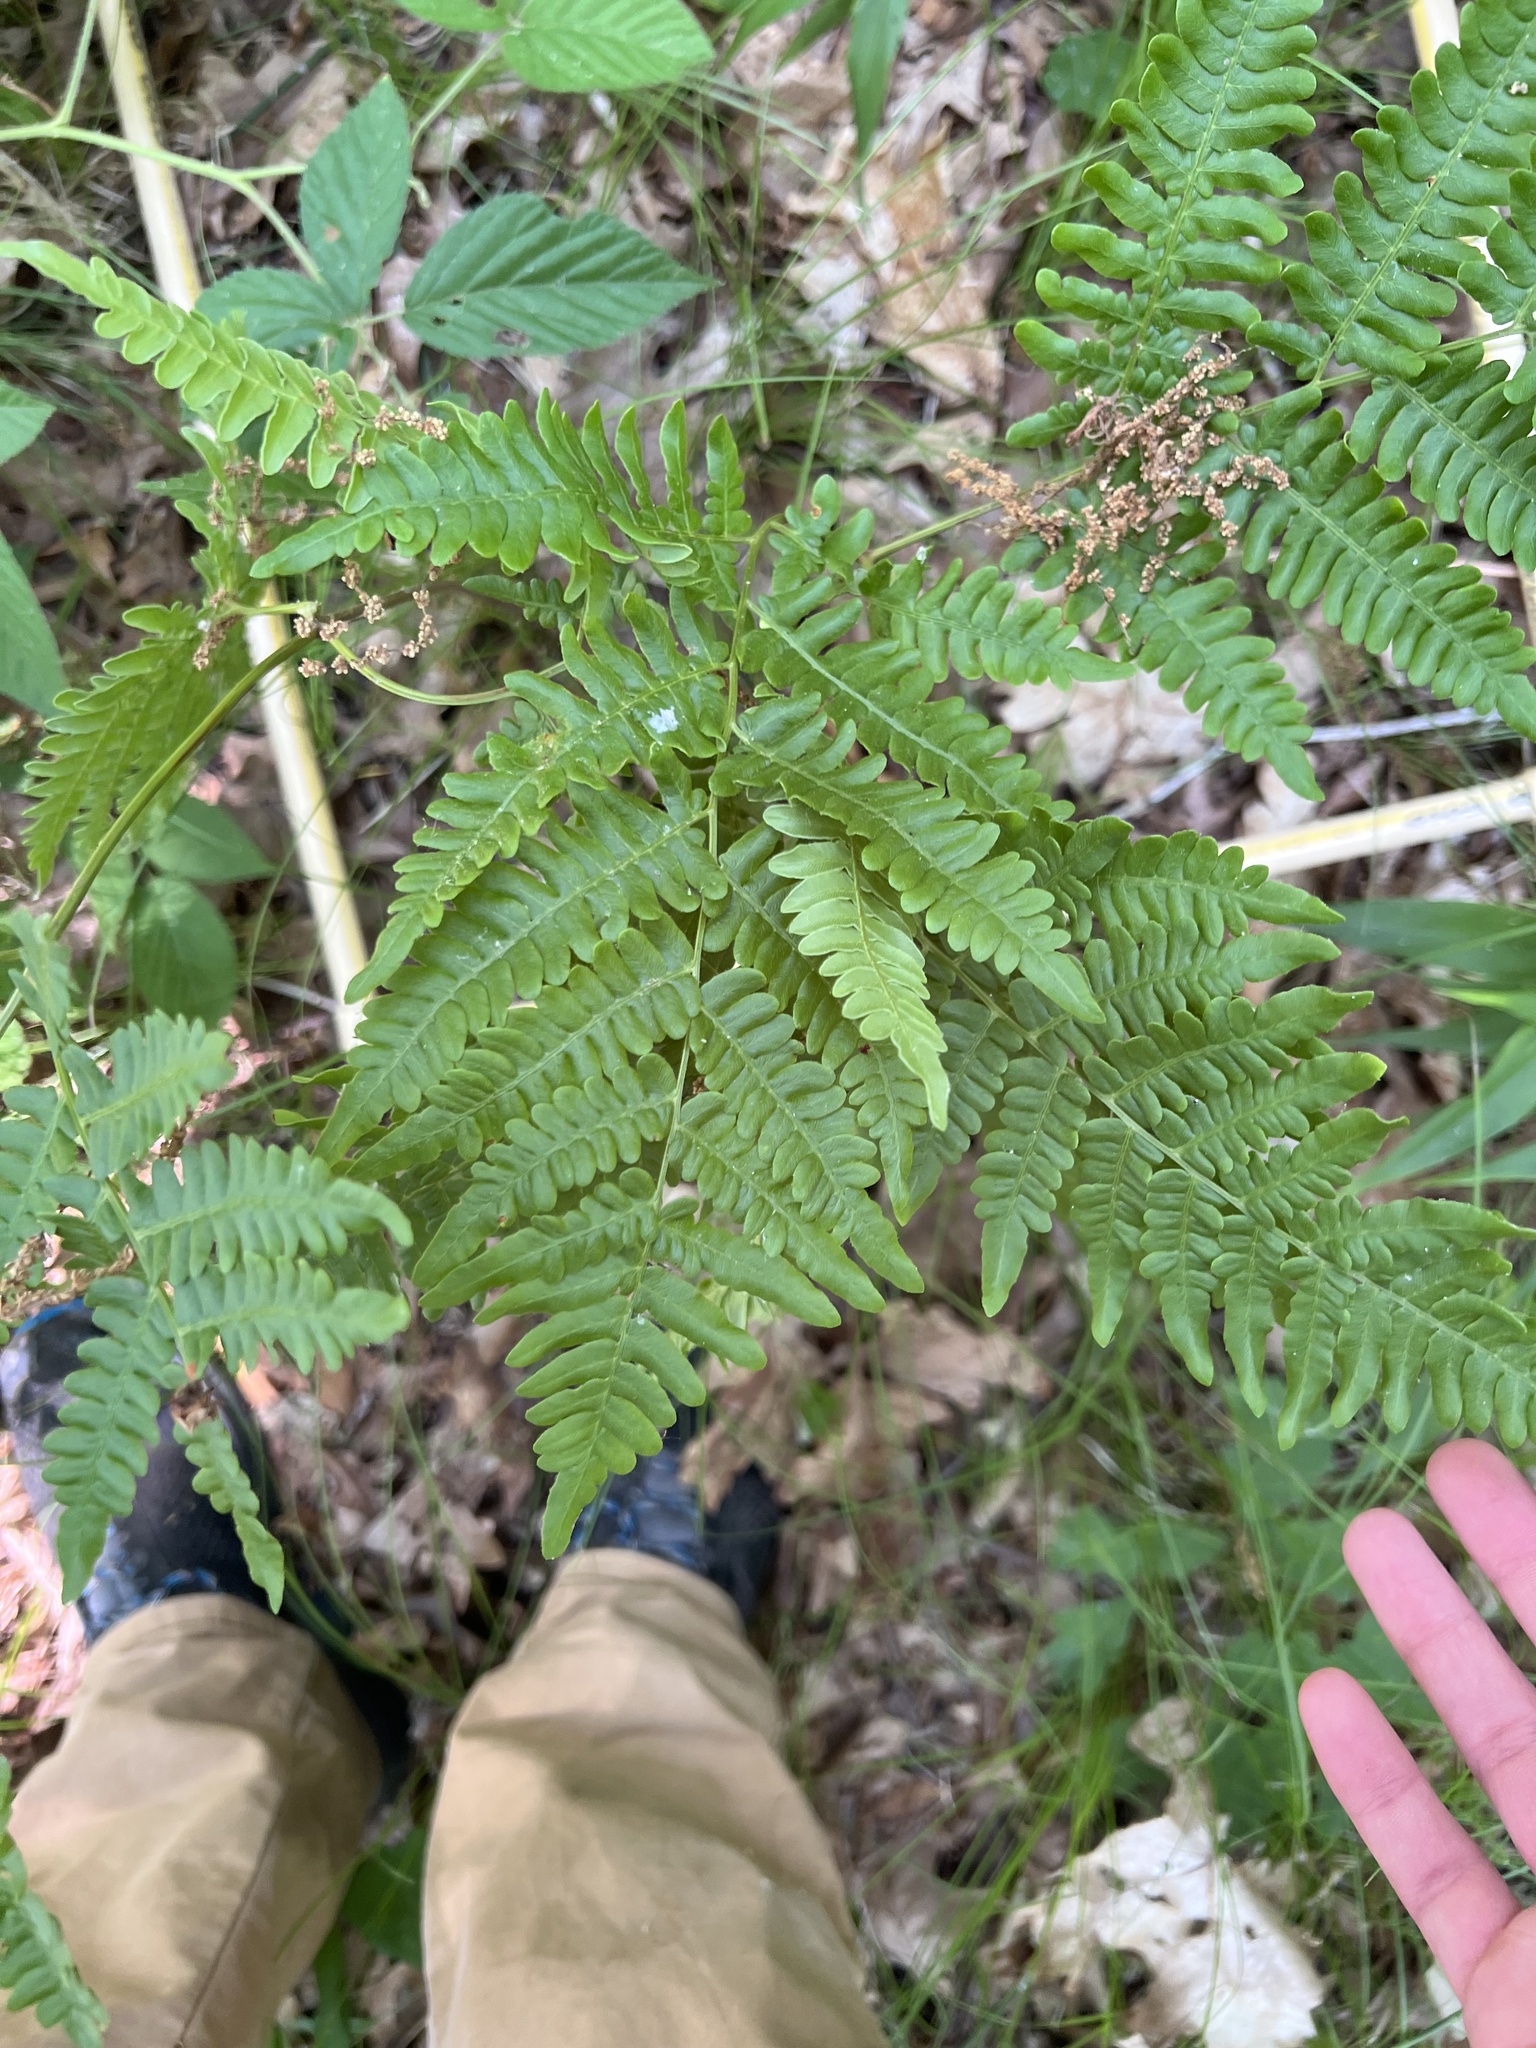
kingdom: Plantae
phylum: Tracheophyta
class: Polypodiopsida
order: Polypodiales
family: Dennstaedtiaceae
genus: Pteridium
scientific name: Pteridium aquilinum
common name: Bracken
